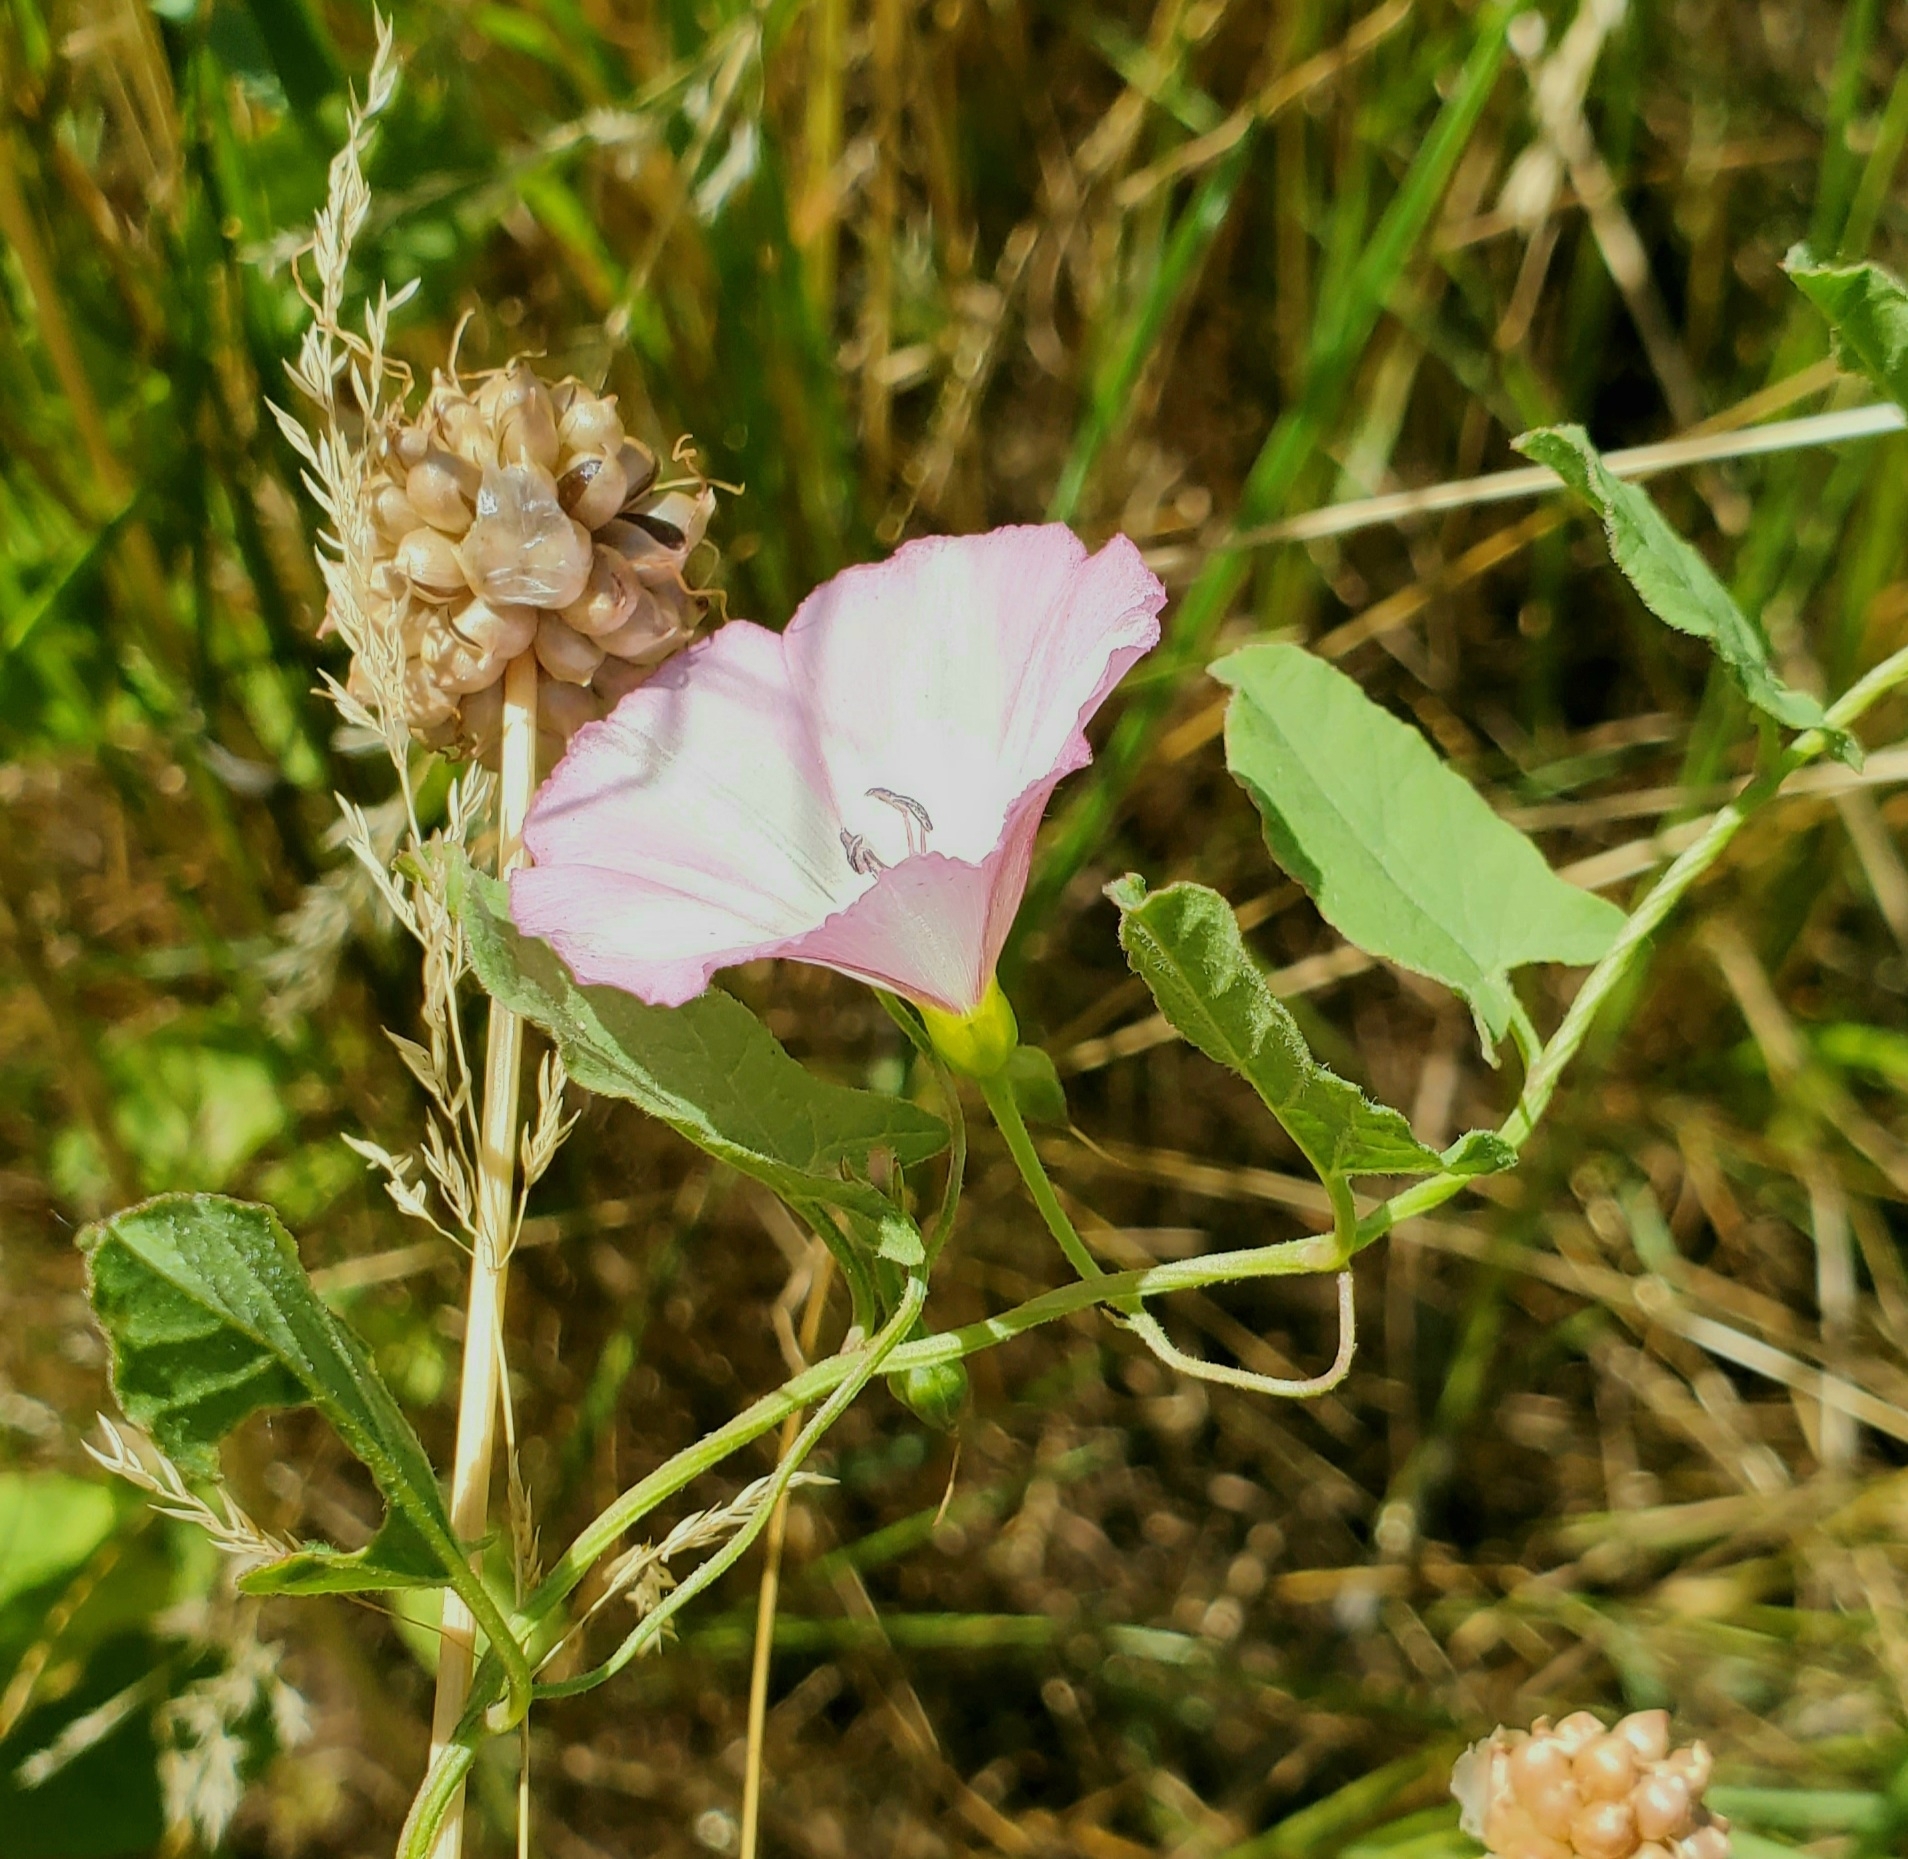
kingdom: Plantae
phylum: Tracheophyta
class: Magnoliopsida
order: Solanales
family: Convolvulaceae
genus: Convolvulus
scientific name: Convolvulus arvensis
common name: Field bindweed
